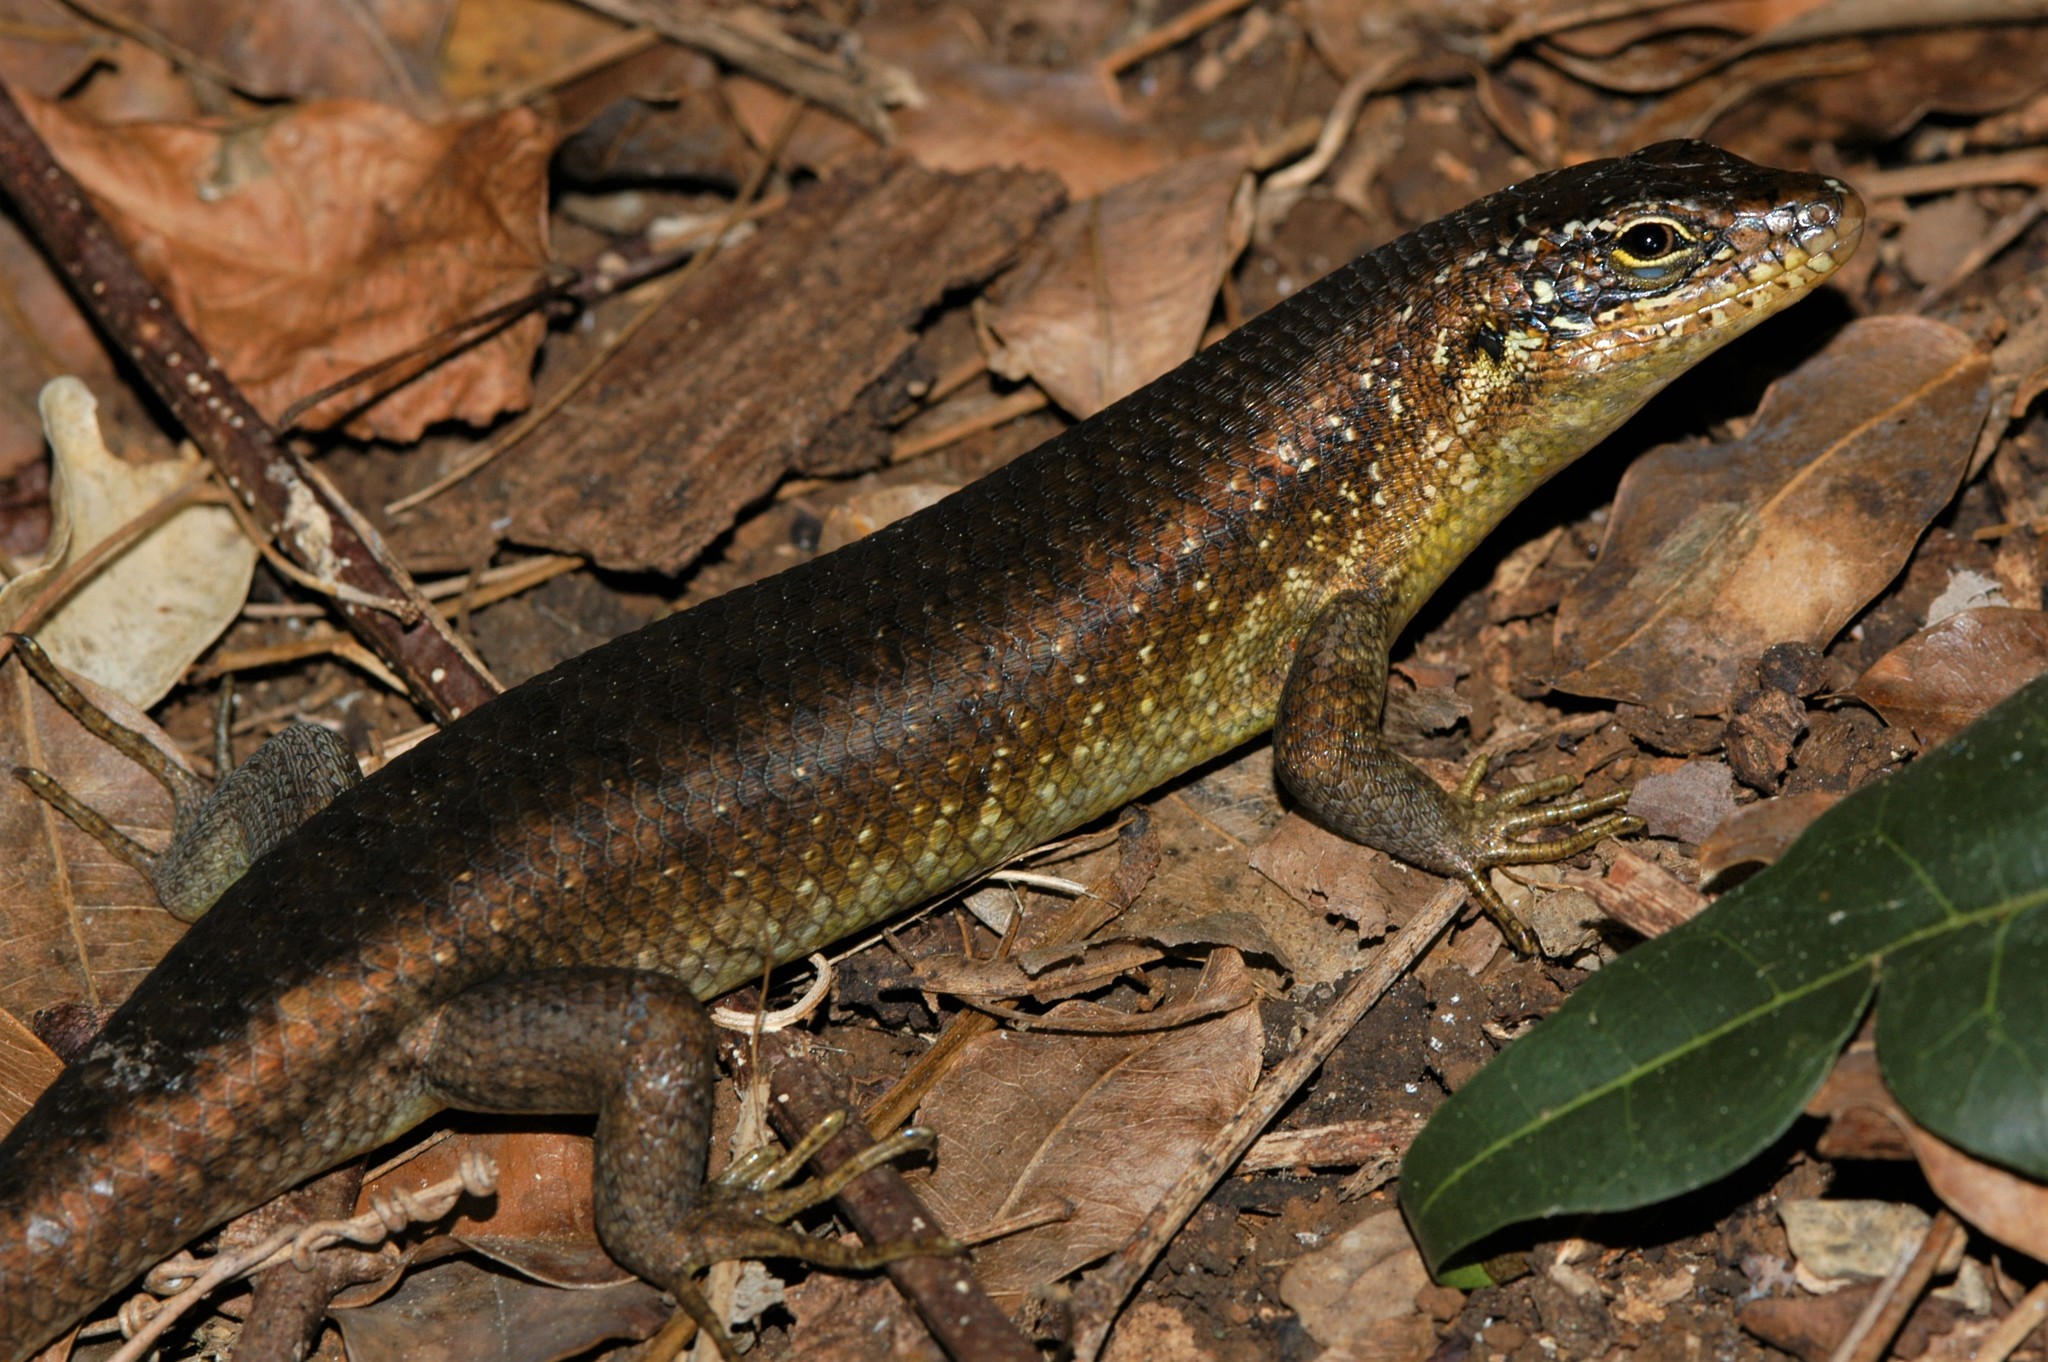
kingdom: Animalia
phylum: Chordata
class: Squamata
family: Scincidae
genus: Trachylepis
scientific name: Trachylepis comorensis
